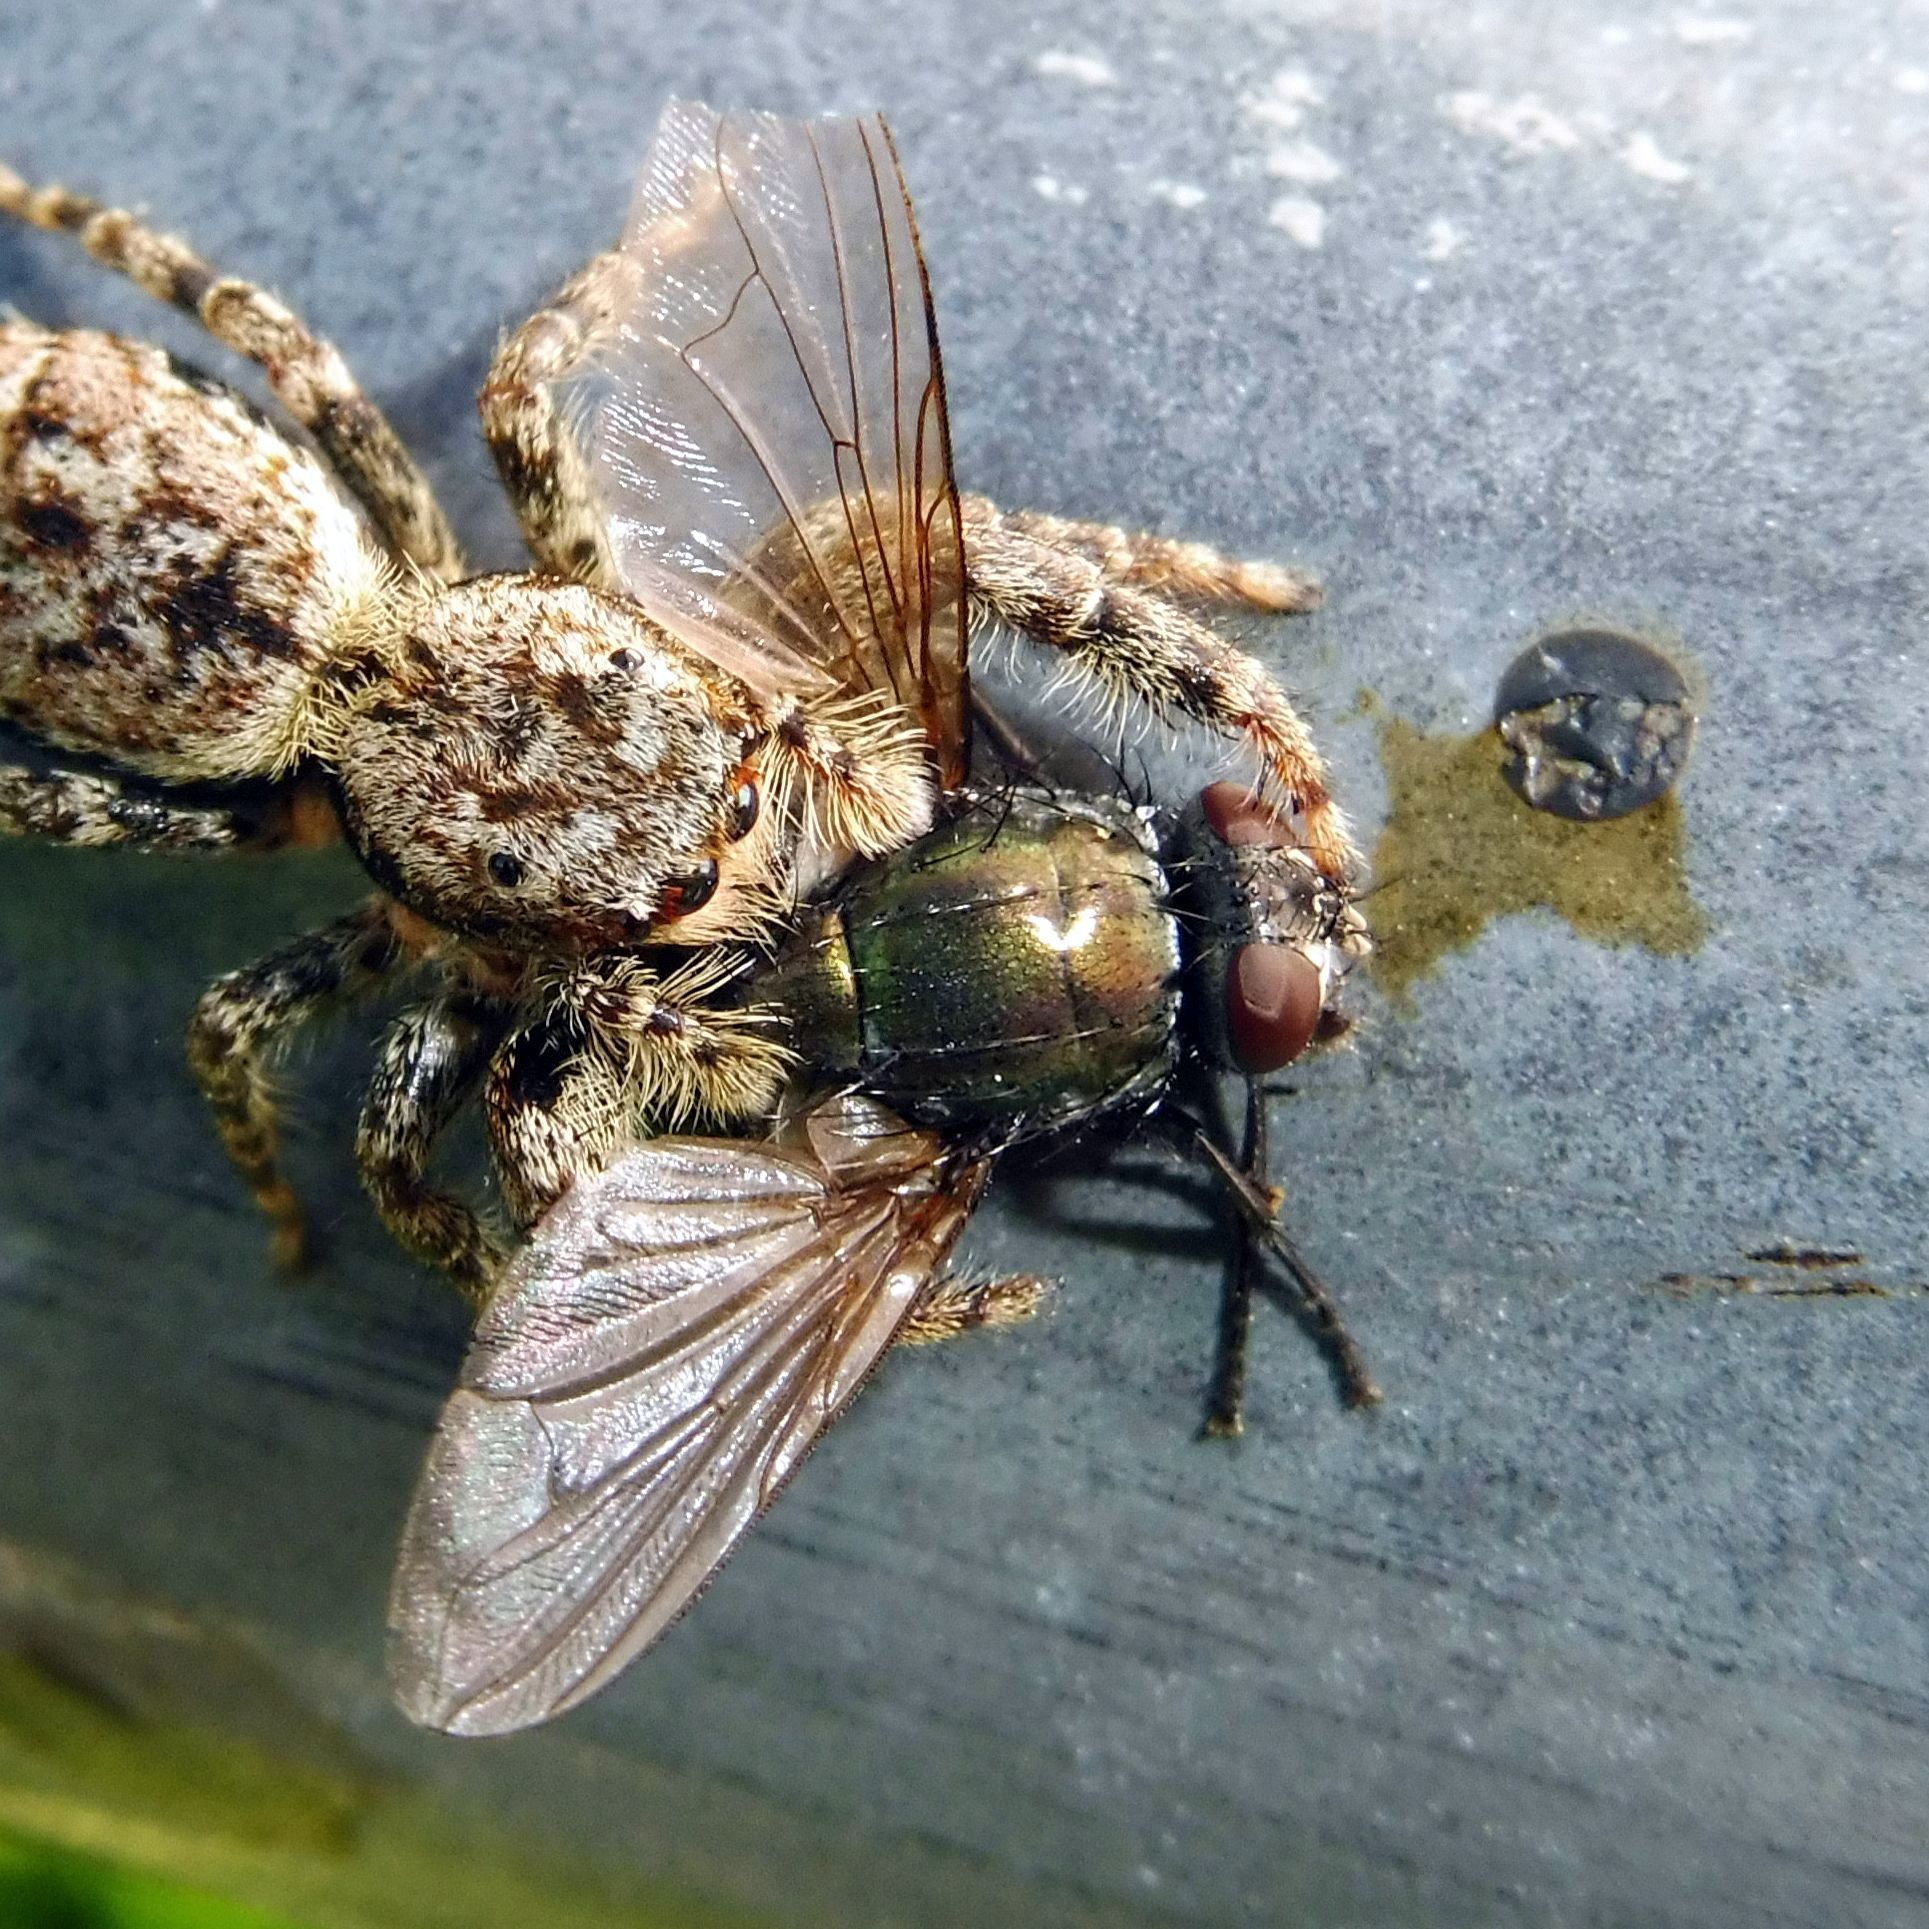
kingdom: Animalia
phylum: Arthropoda
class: Insecta
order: Diptera
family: Muscidae
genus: Dasyphora
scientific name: Dasyphora cyanella
